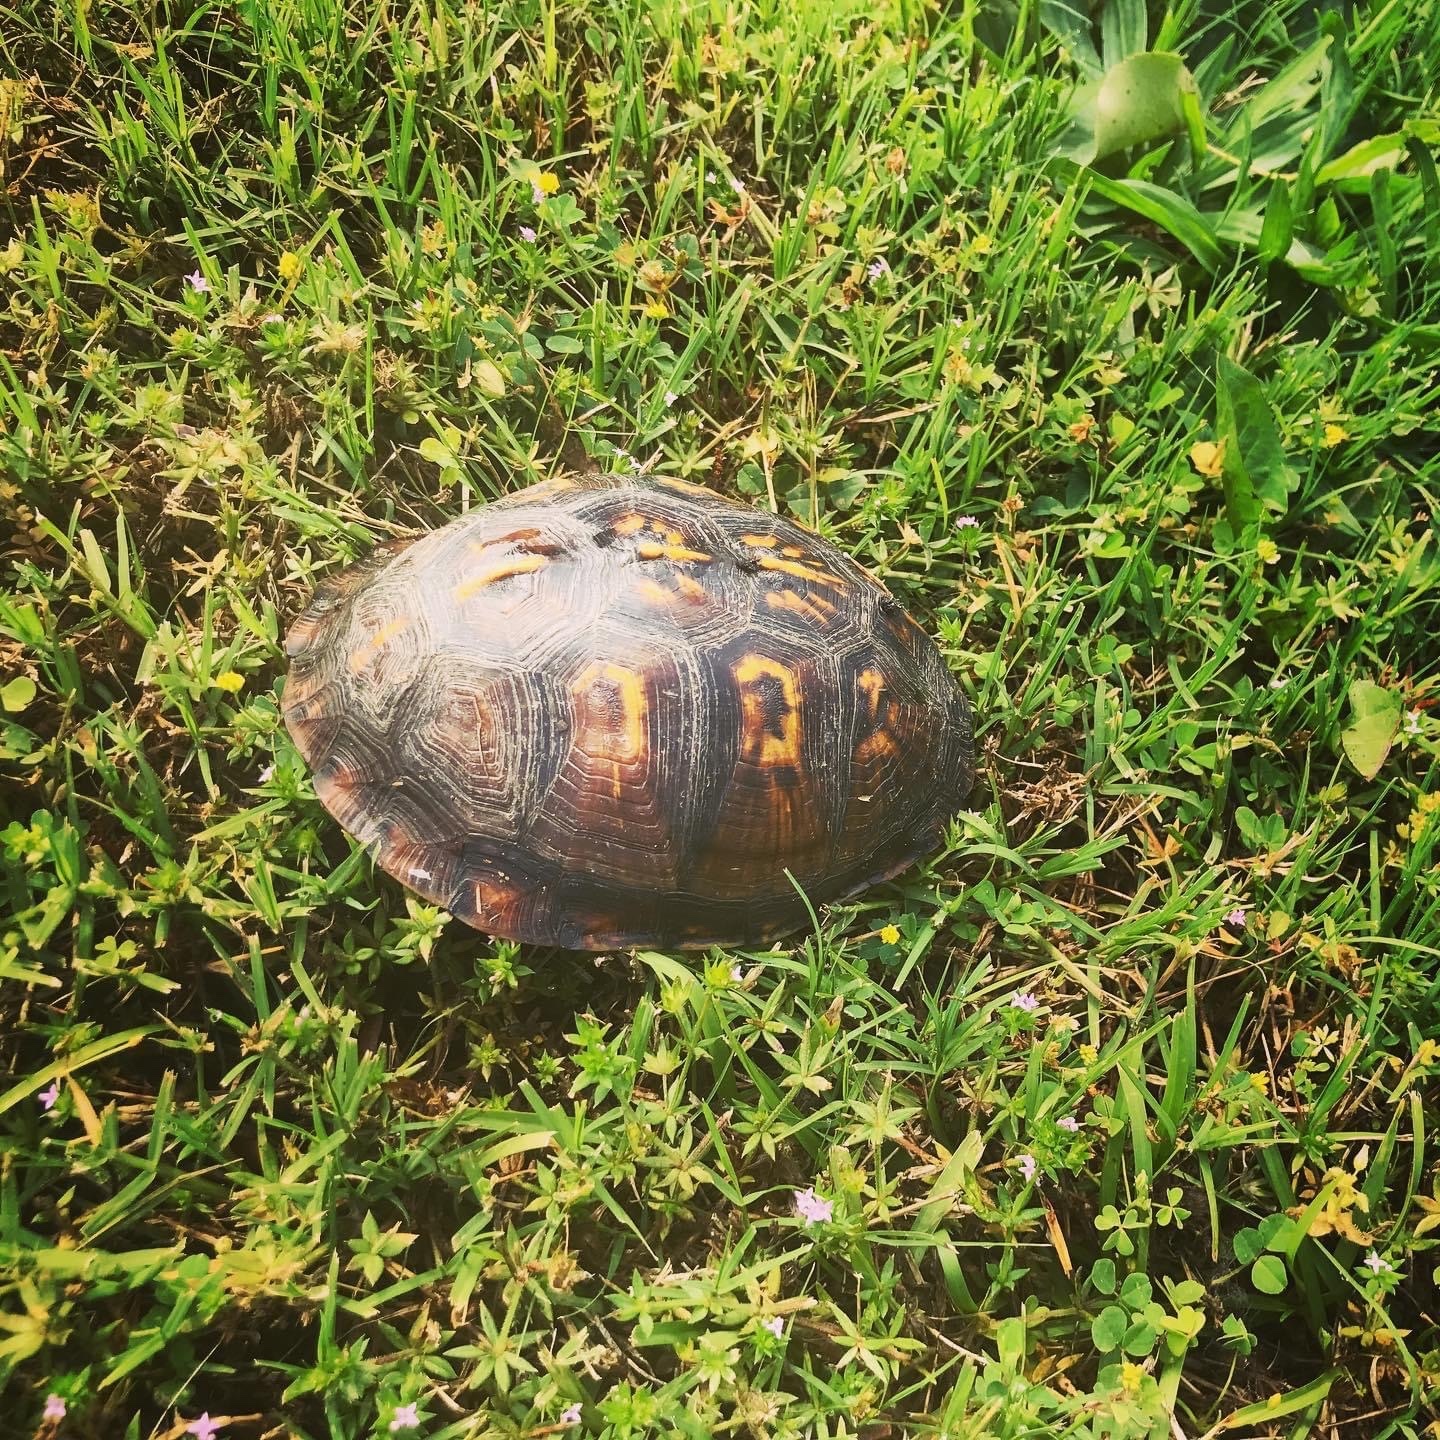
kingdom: Animalia
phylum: Chordata
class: Testudines
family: Emydidae
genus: Terrapene
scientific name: Terrapene carolina
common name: Common box turtle
